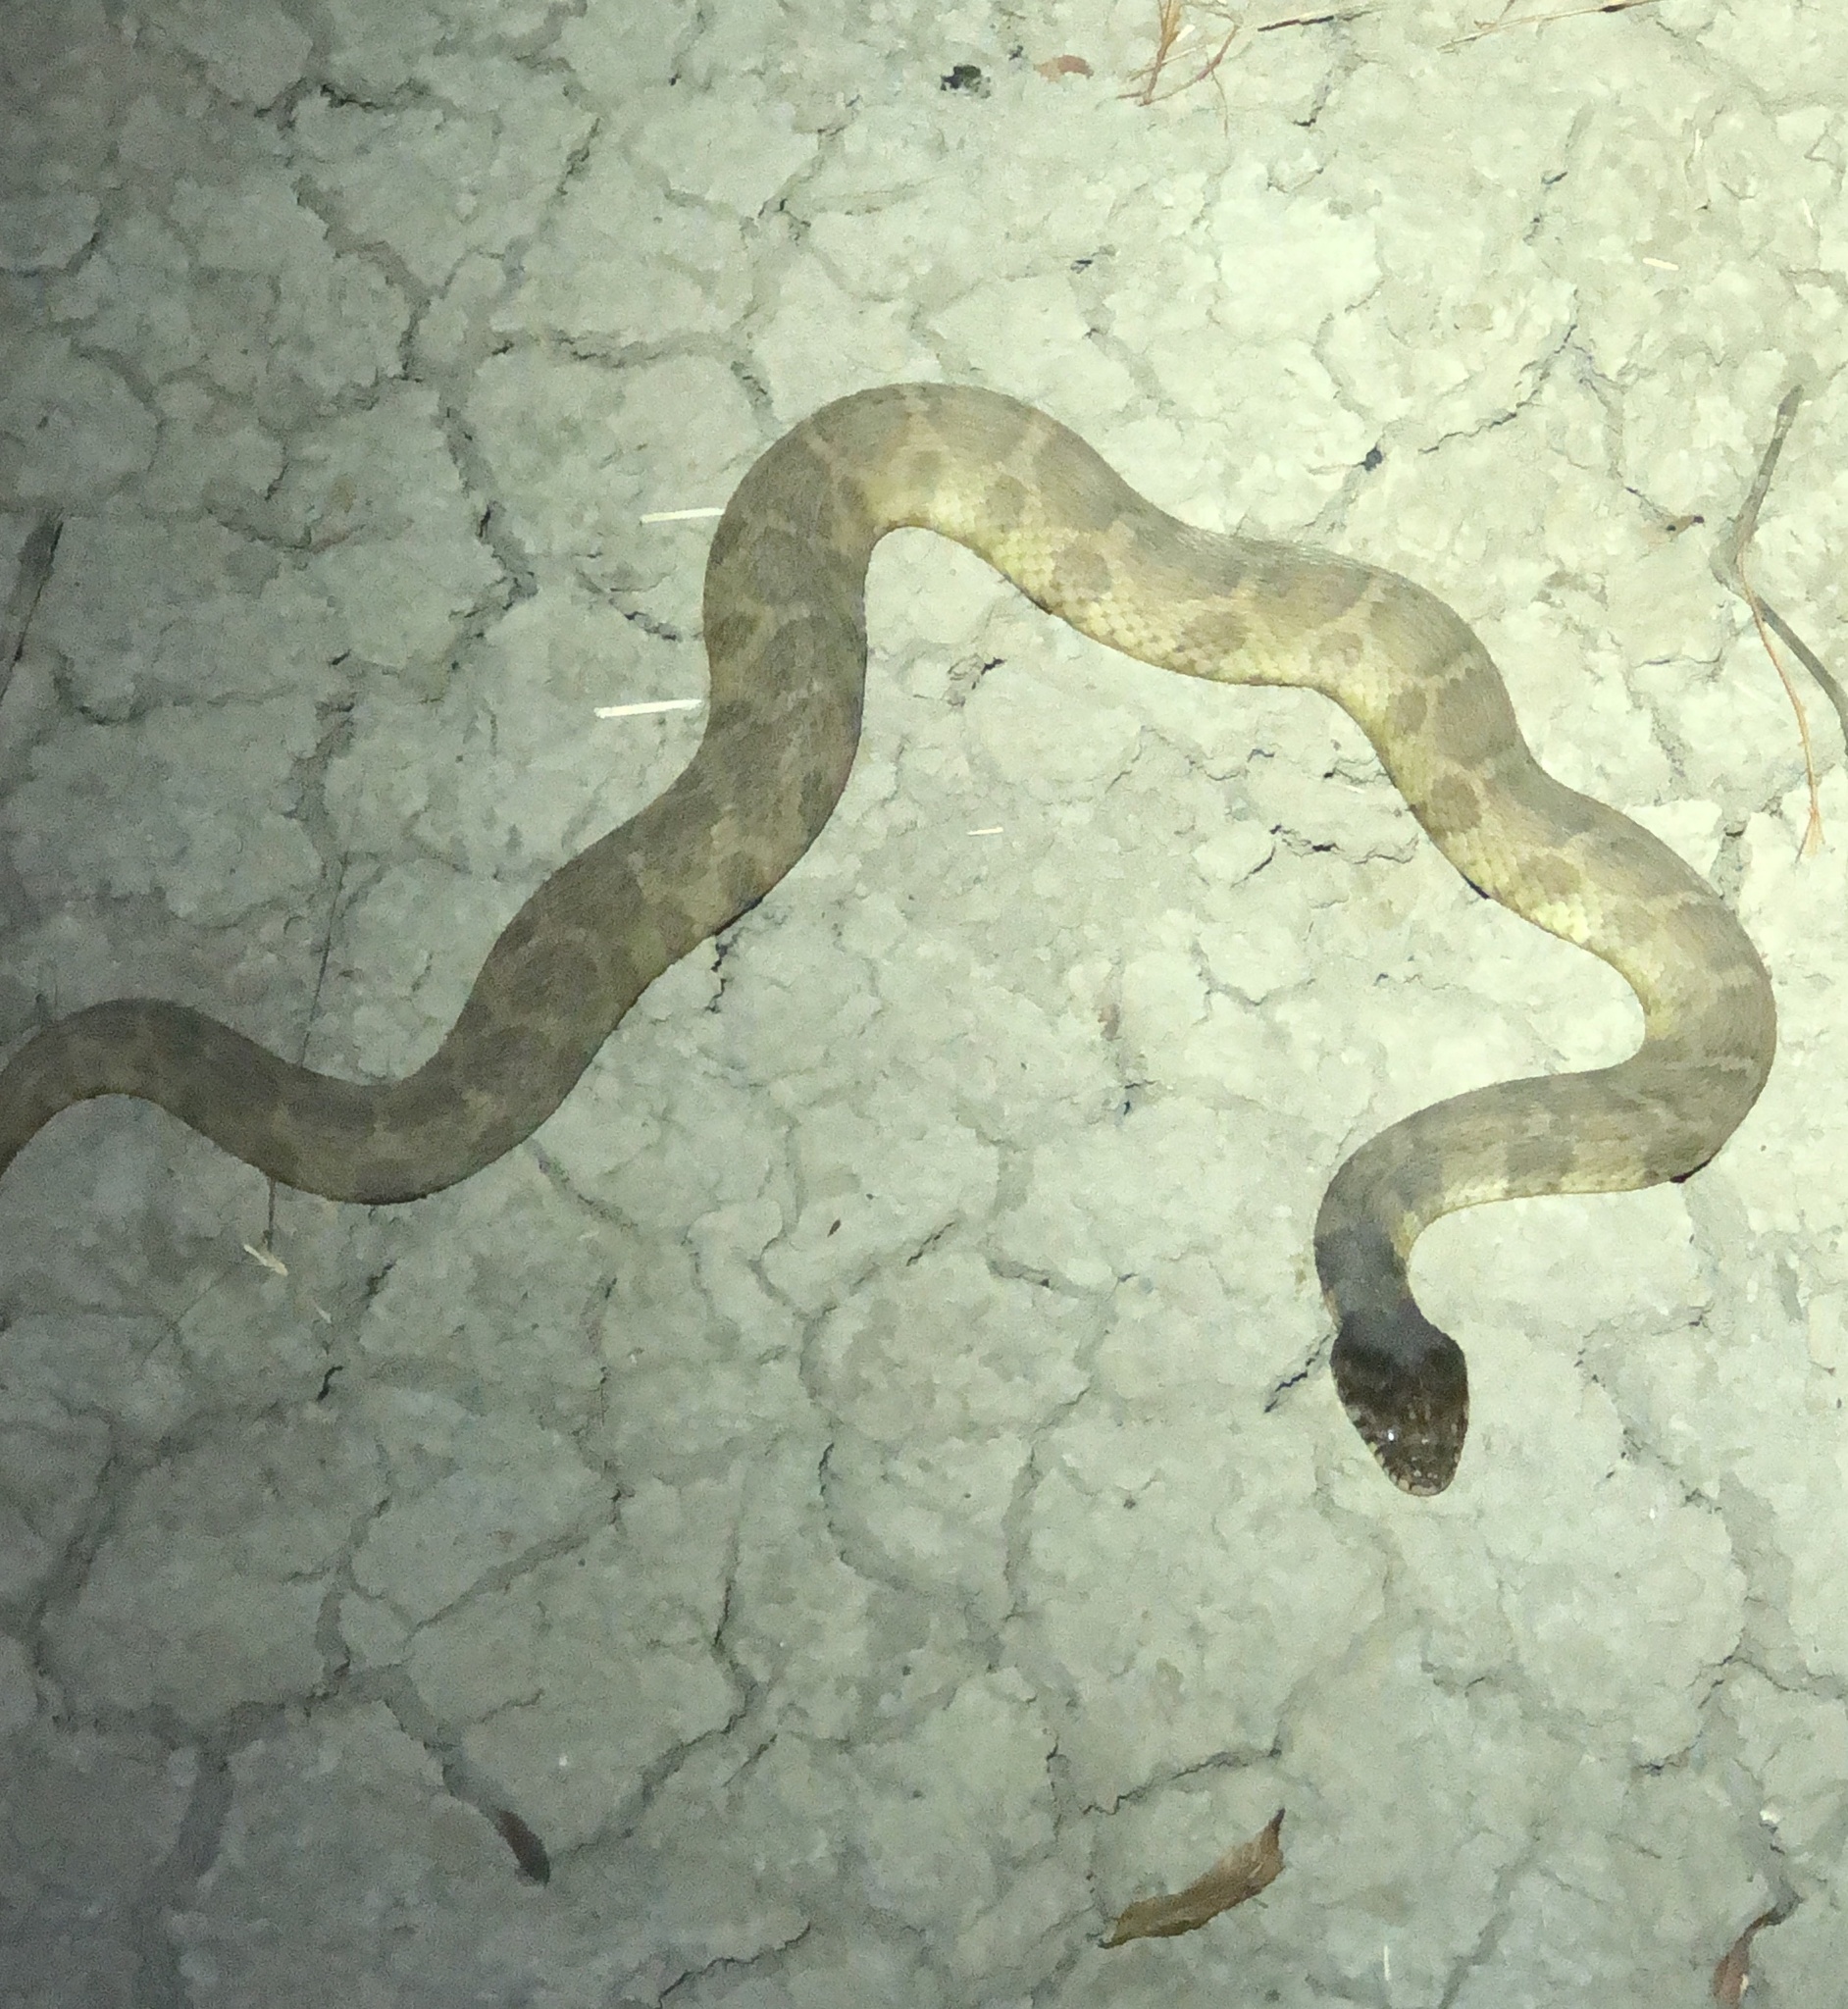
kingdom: Animalia
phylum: Chordata
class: Squamata
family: Colubridae
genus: Nerodia
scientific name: Nerodia erythrogaster
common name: Plainbelly water snake
